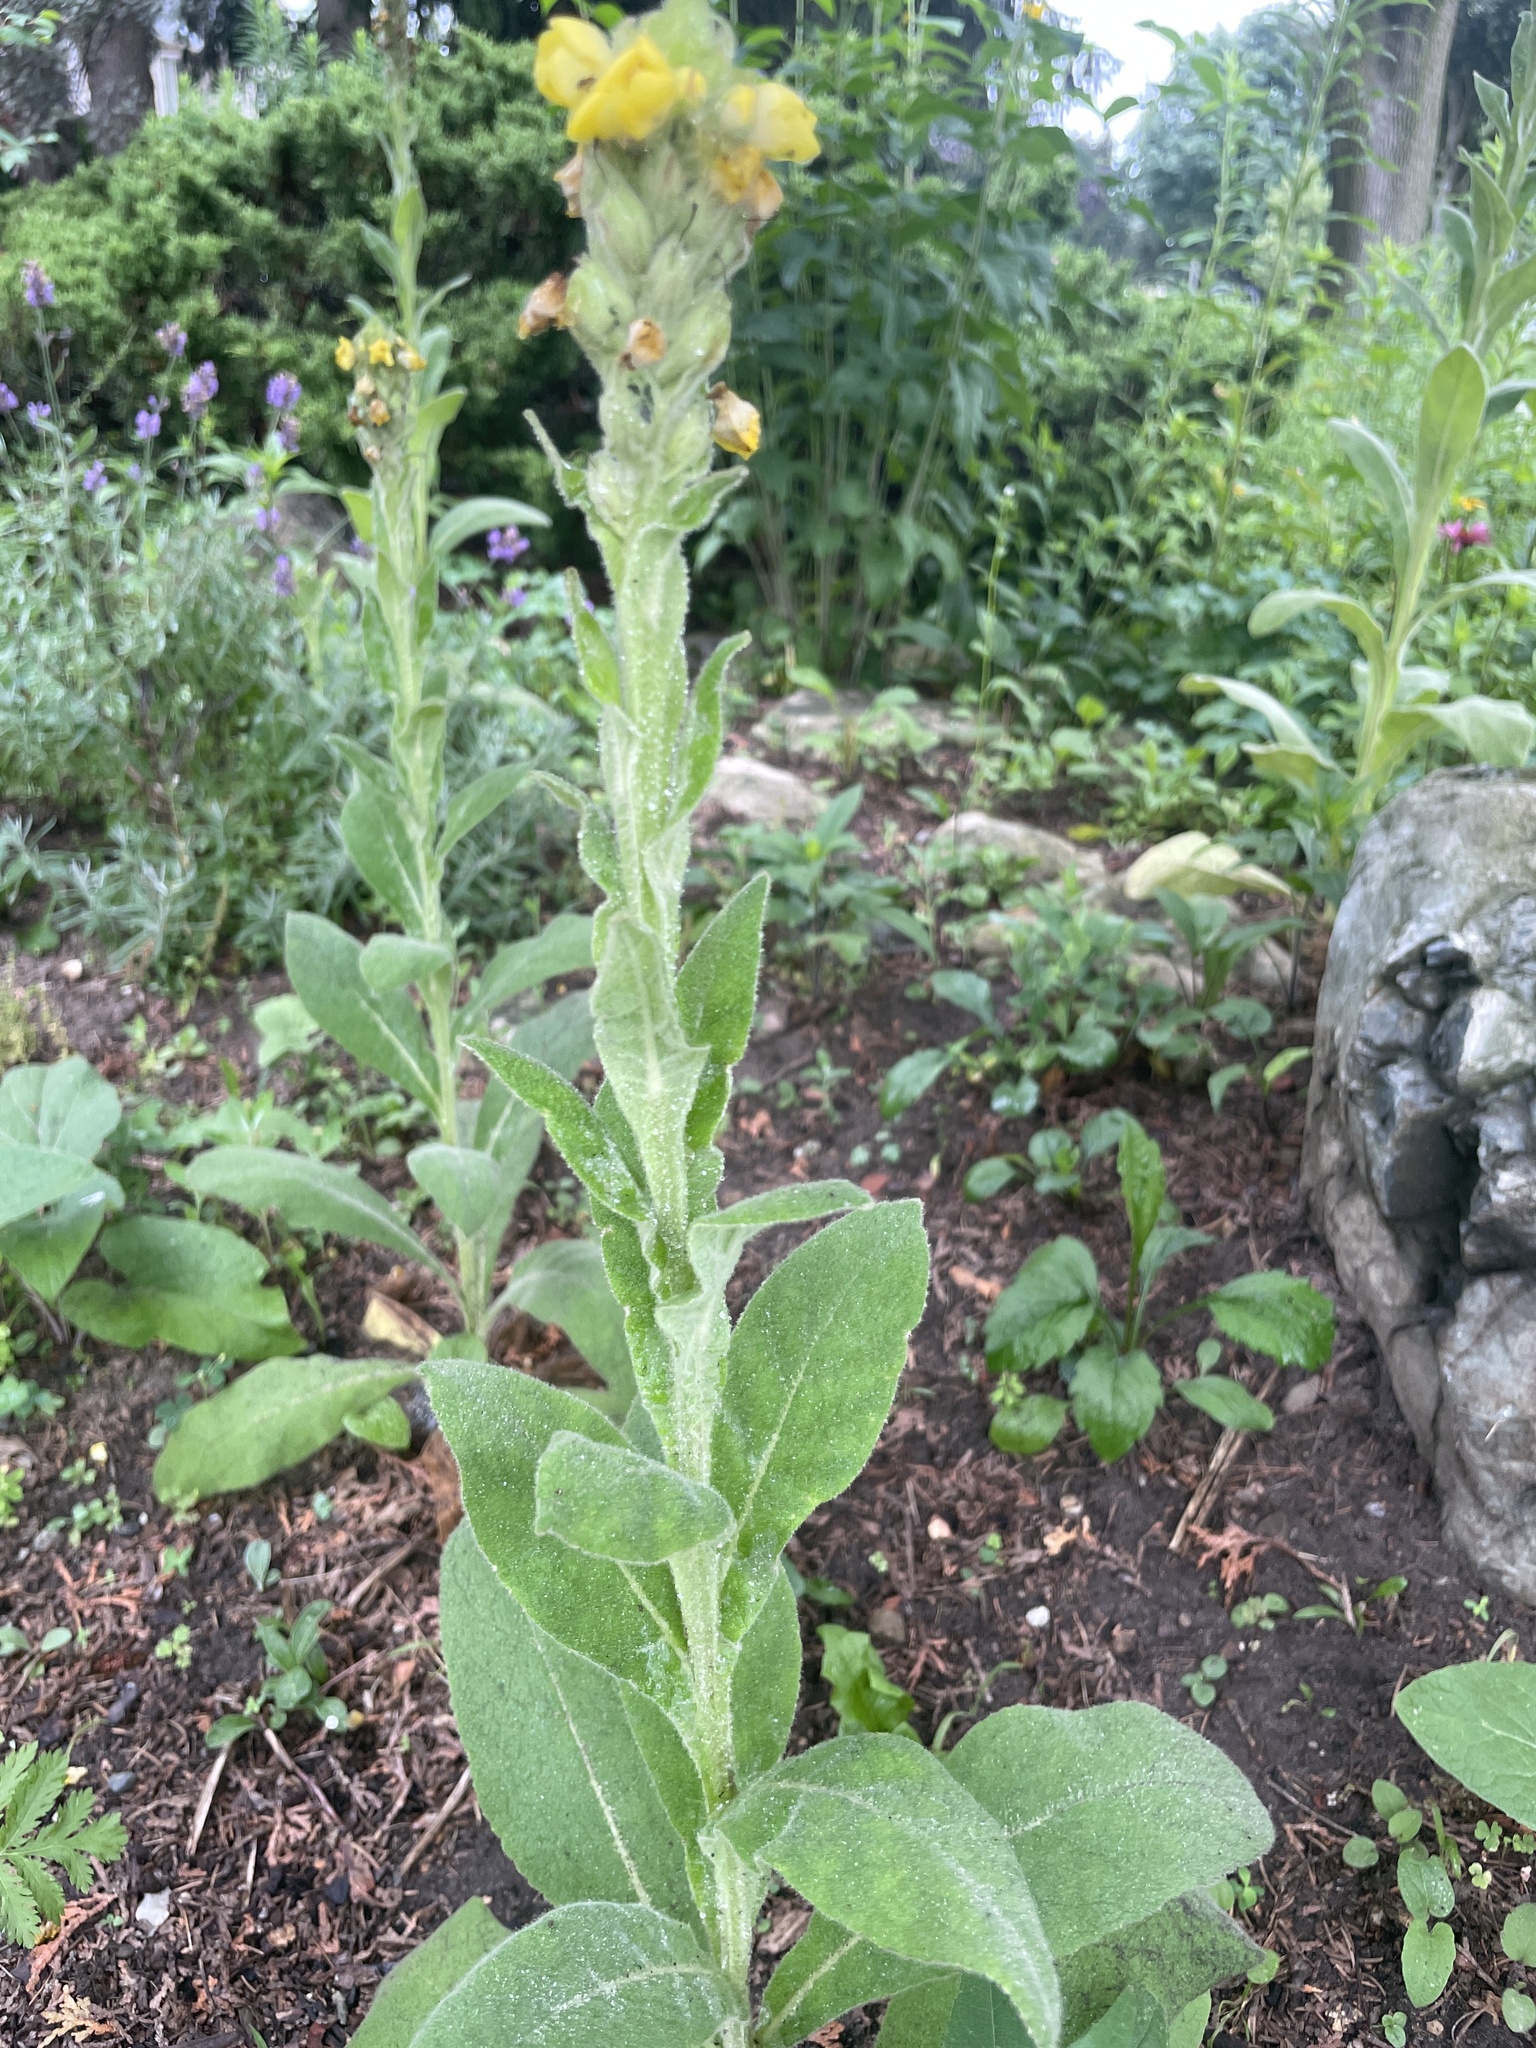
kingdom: Plantae
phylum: Tracheophyta
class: Magnoliopsida
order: Lamiales
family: Scrophulariaceae
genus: Verbascum
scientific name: Verbascum thapsus
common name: Common mullein
